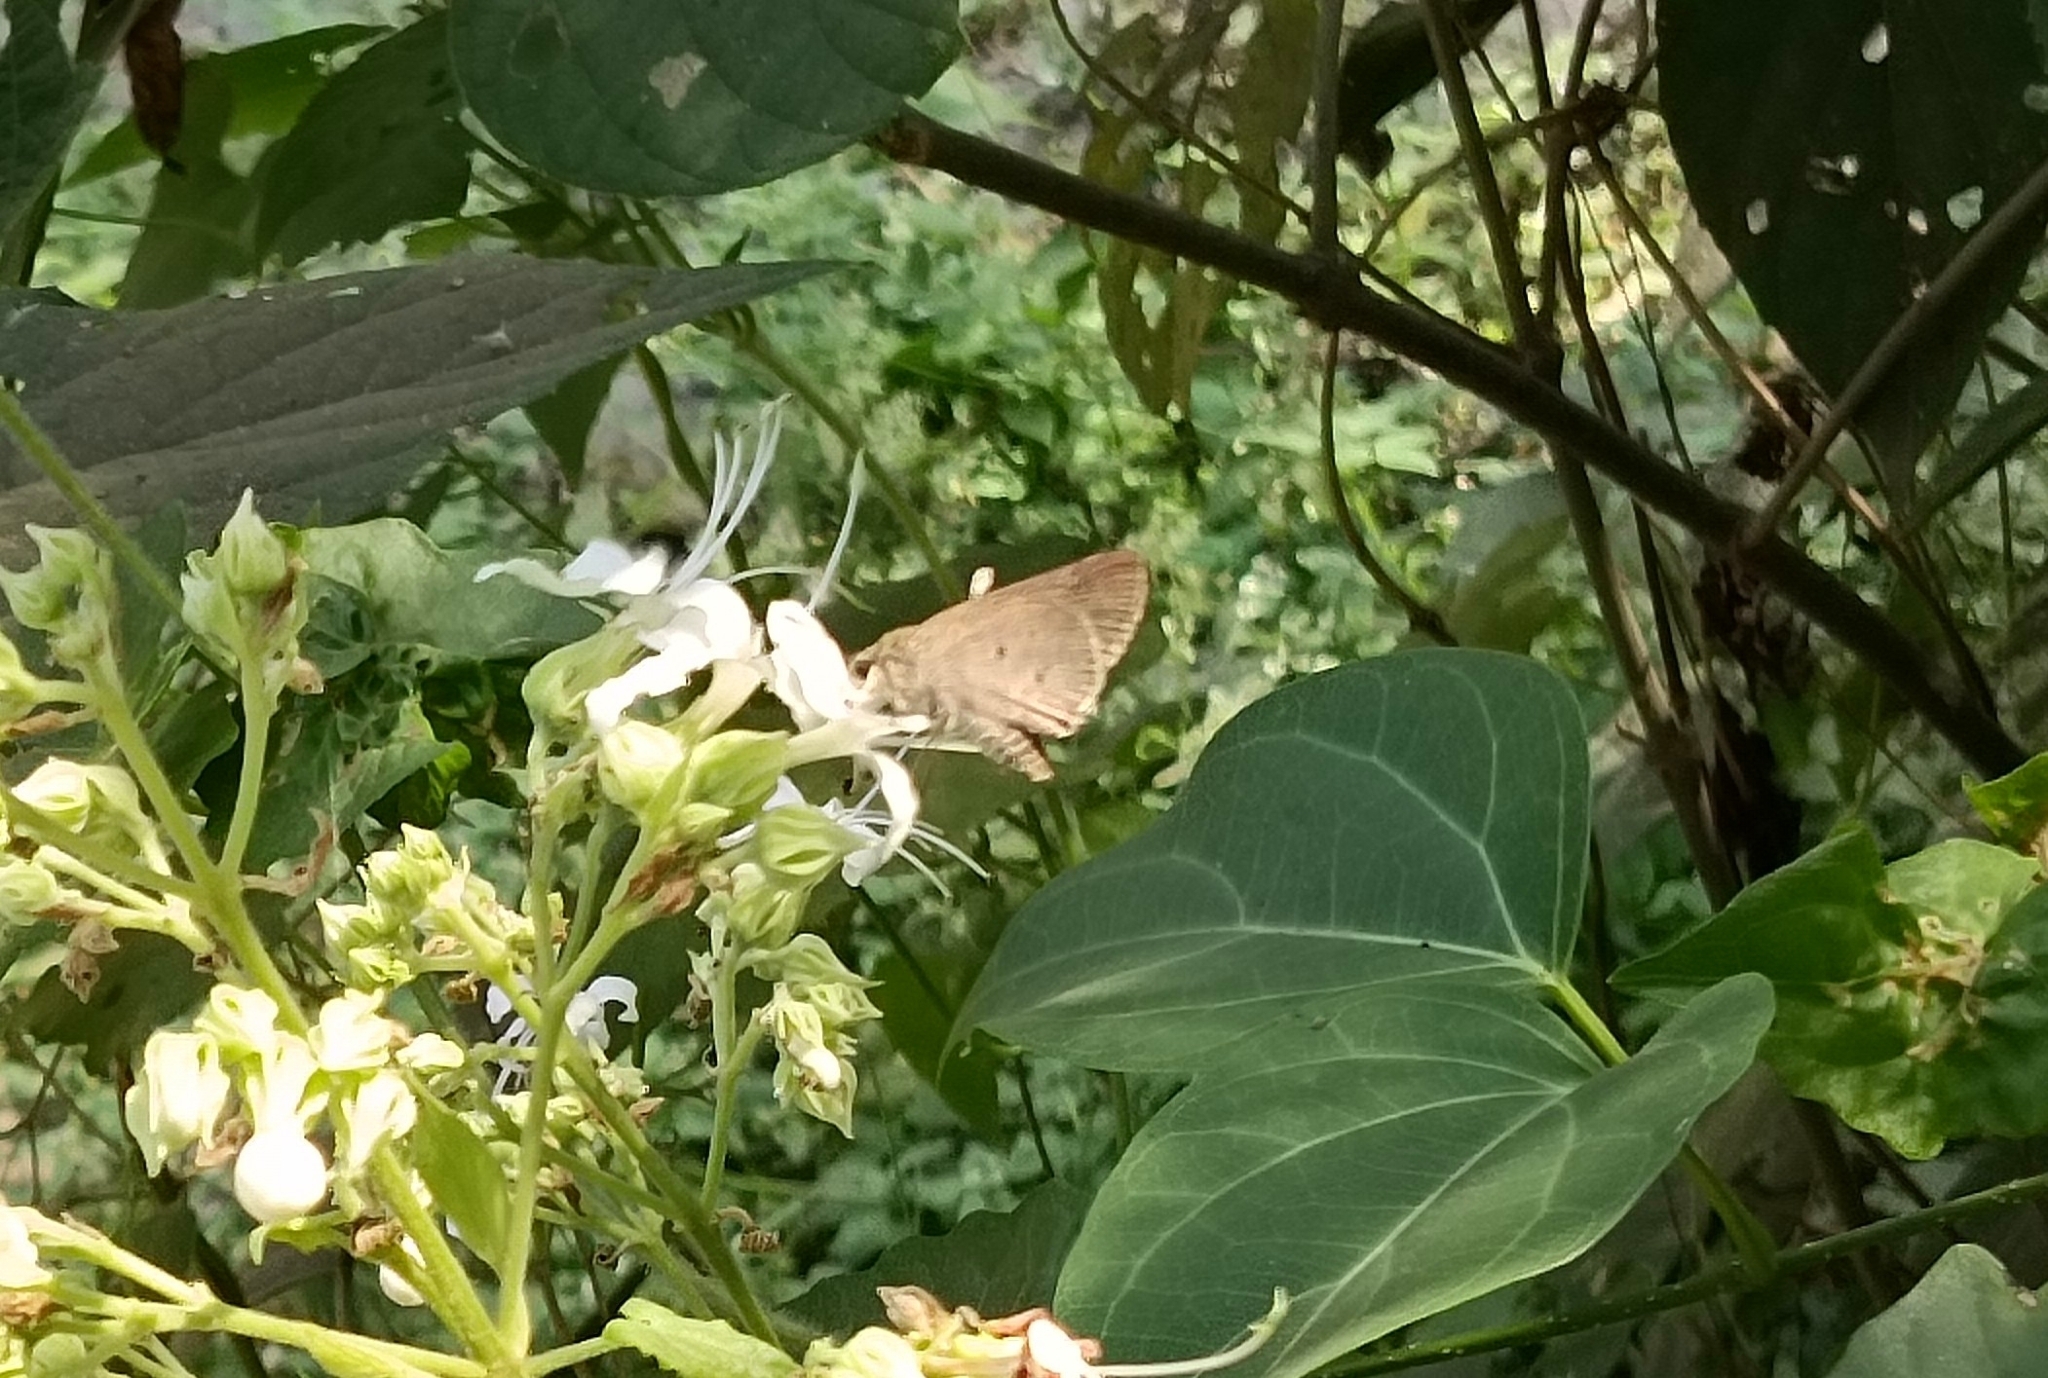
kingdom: Animalia
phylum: Arthropoda
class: Insecta
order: Lepidoptera
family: Hesperiidae
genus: Suastus
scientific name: Suastus gremius
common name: Indian palm bob
